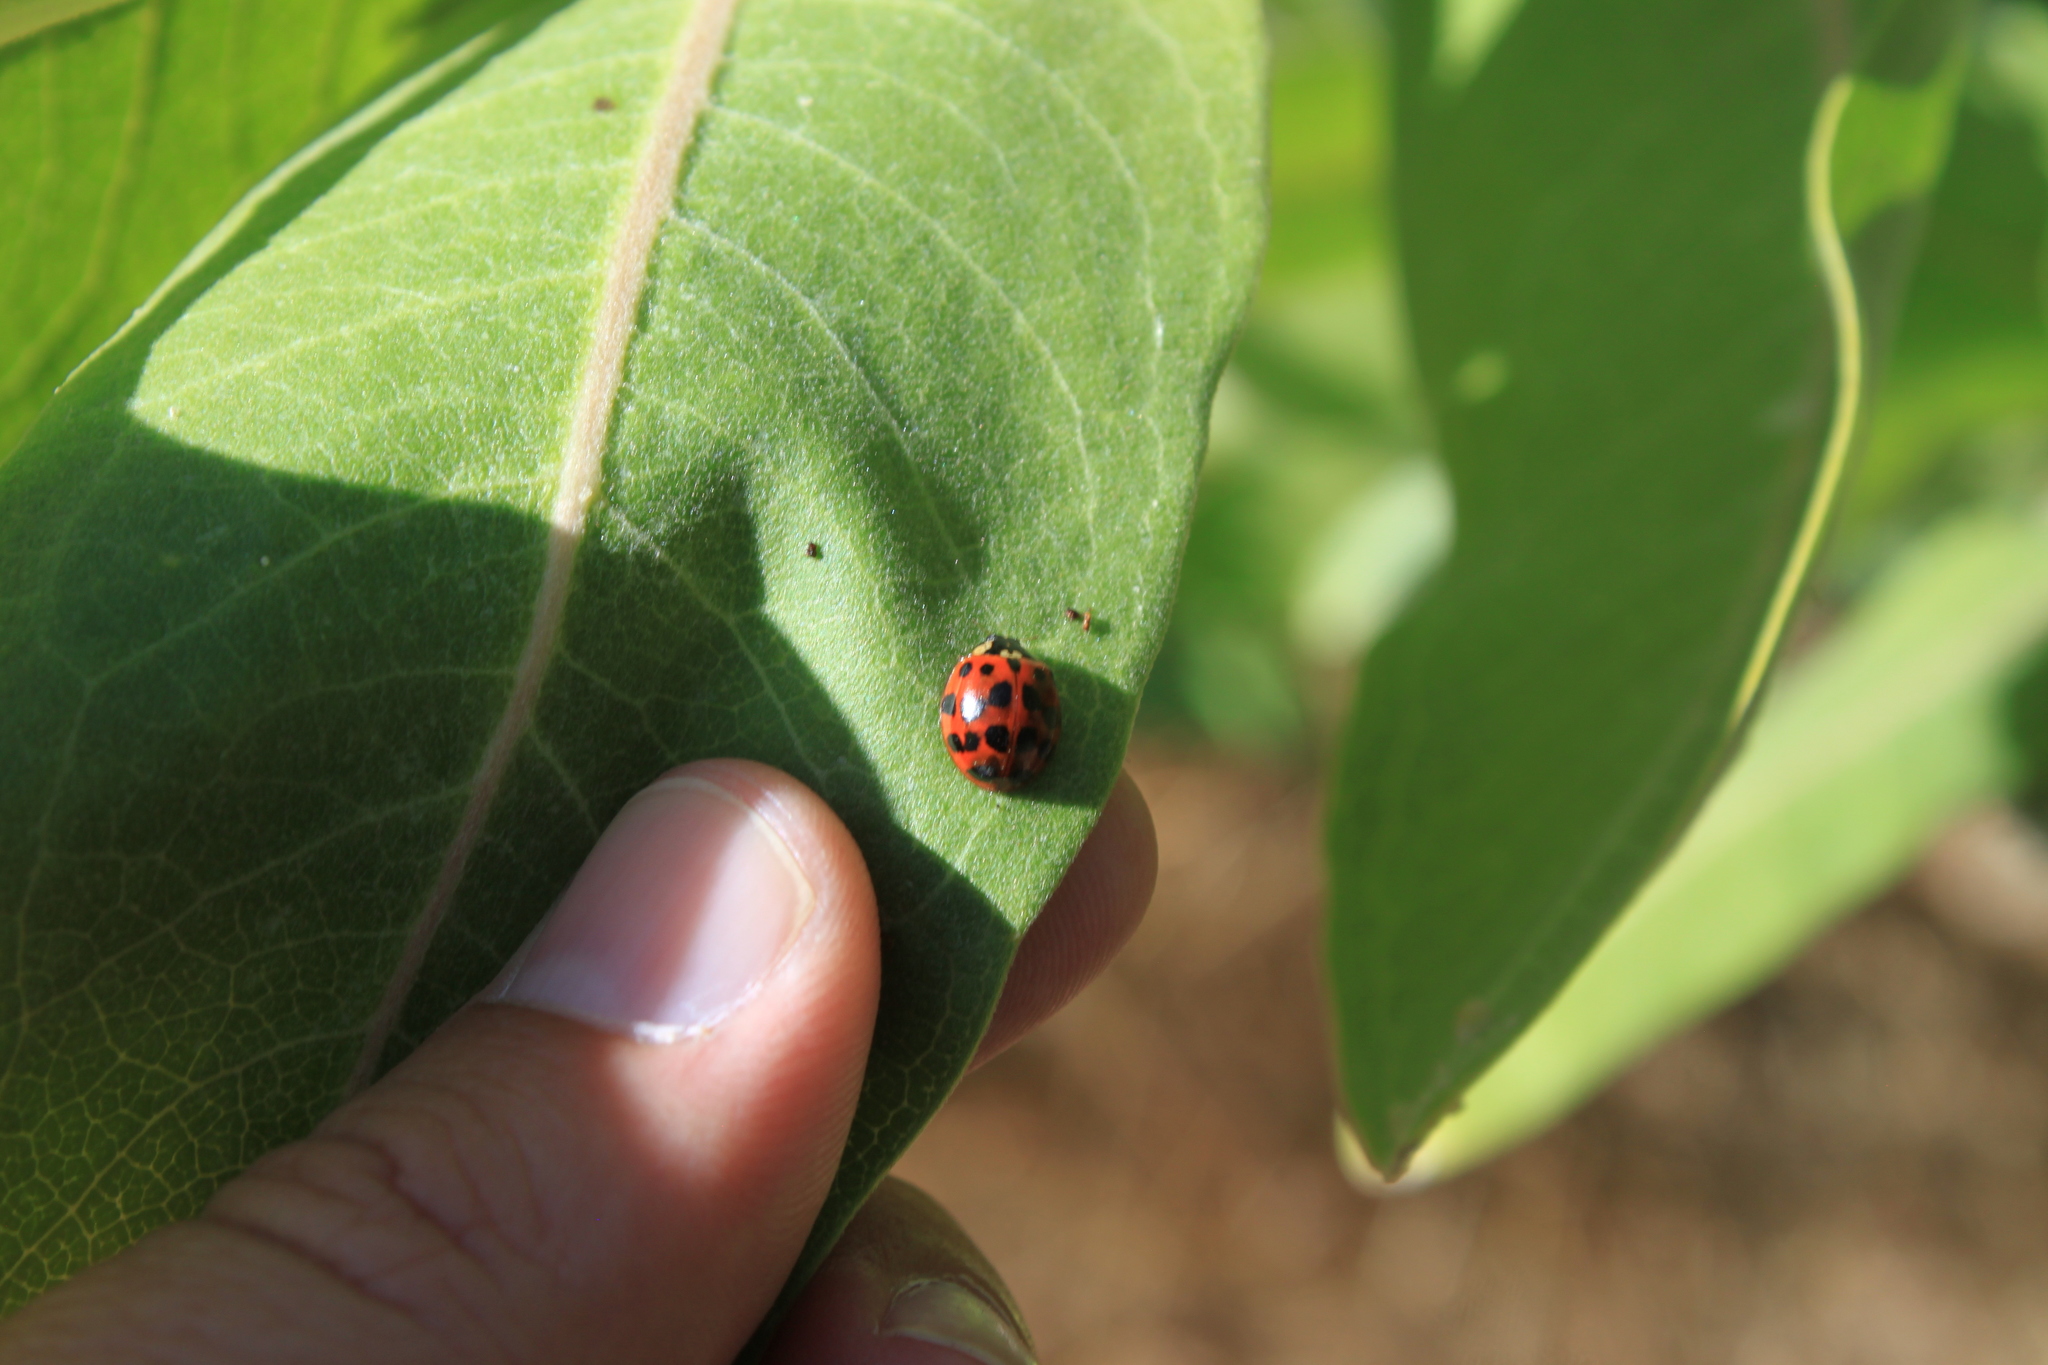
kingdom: Animalia
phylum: Arthropoda
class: Insecta
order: Coleoptera
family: Coccinellidae
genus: Harmonia
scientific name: Harmonia axyridis
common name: Harlequin ladybird
